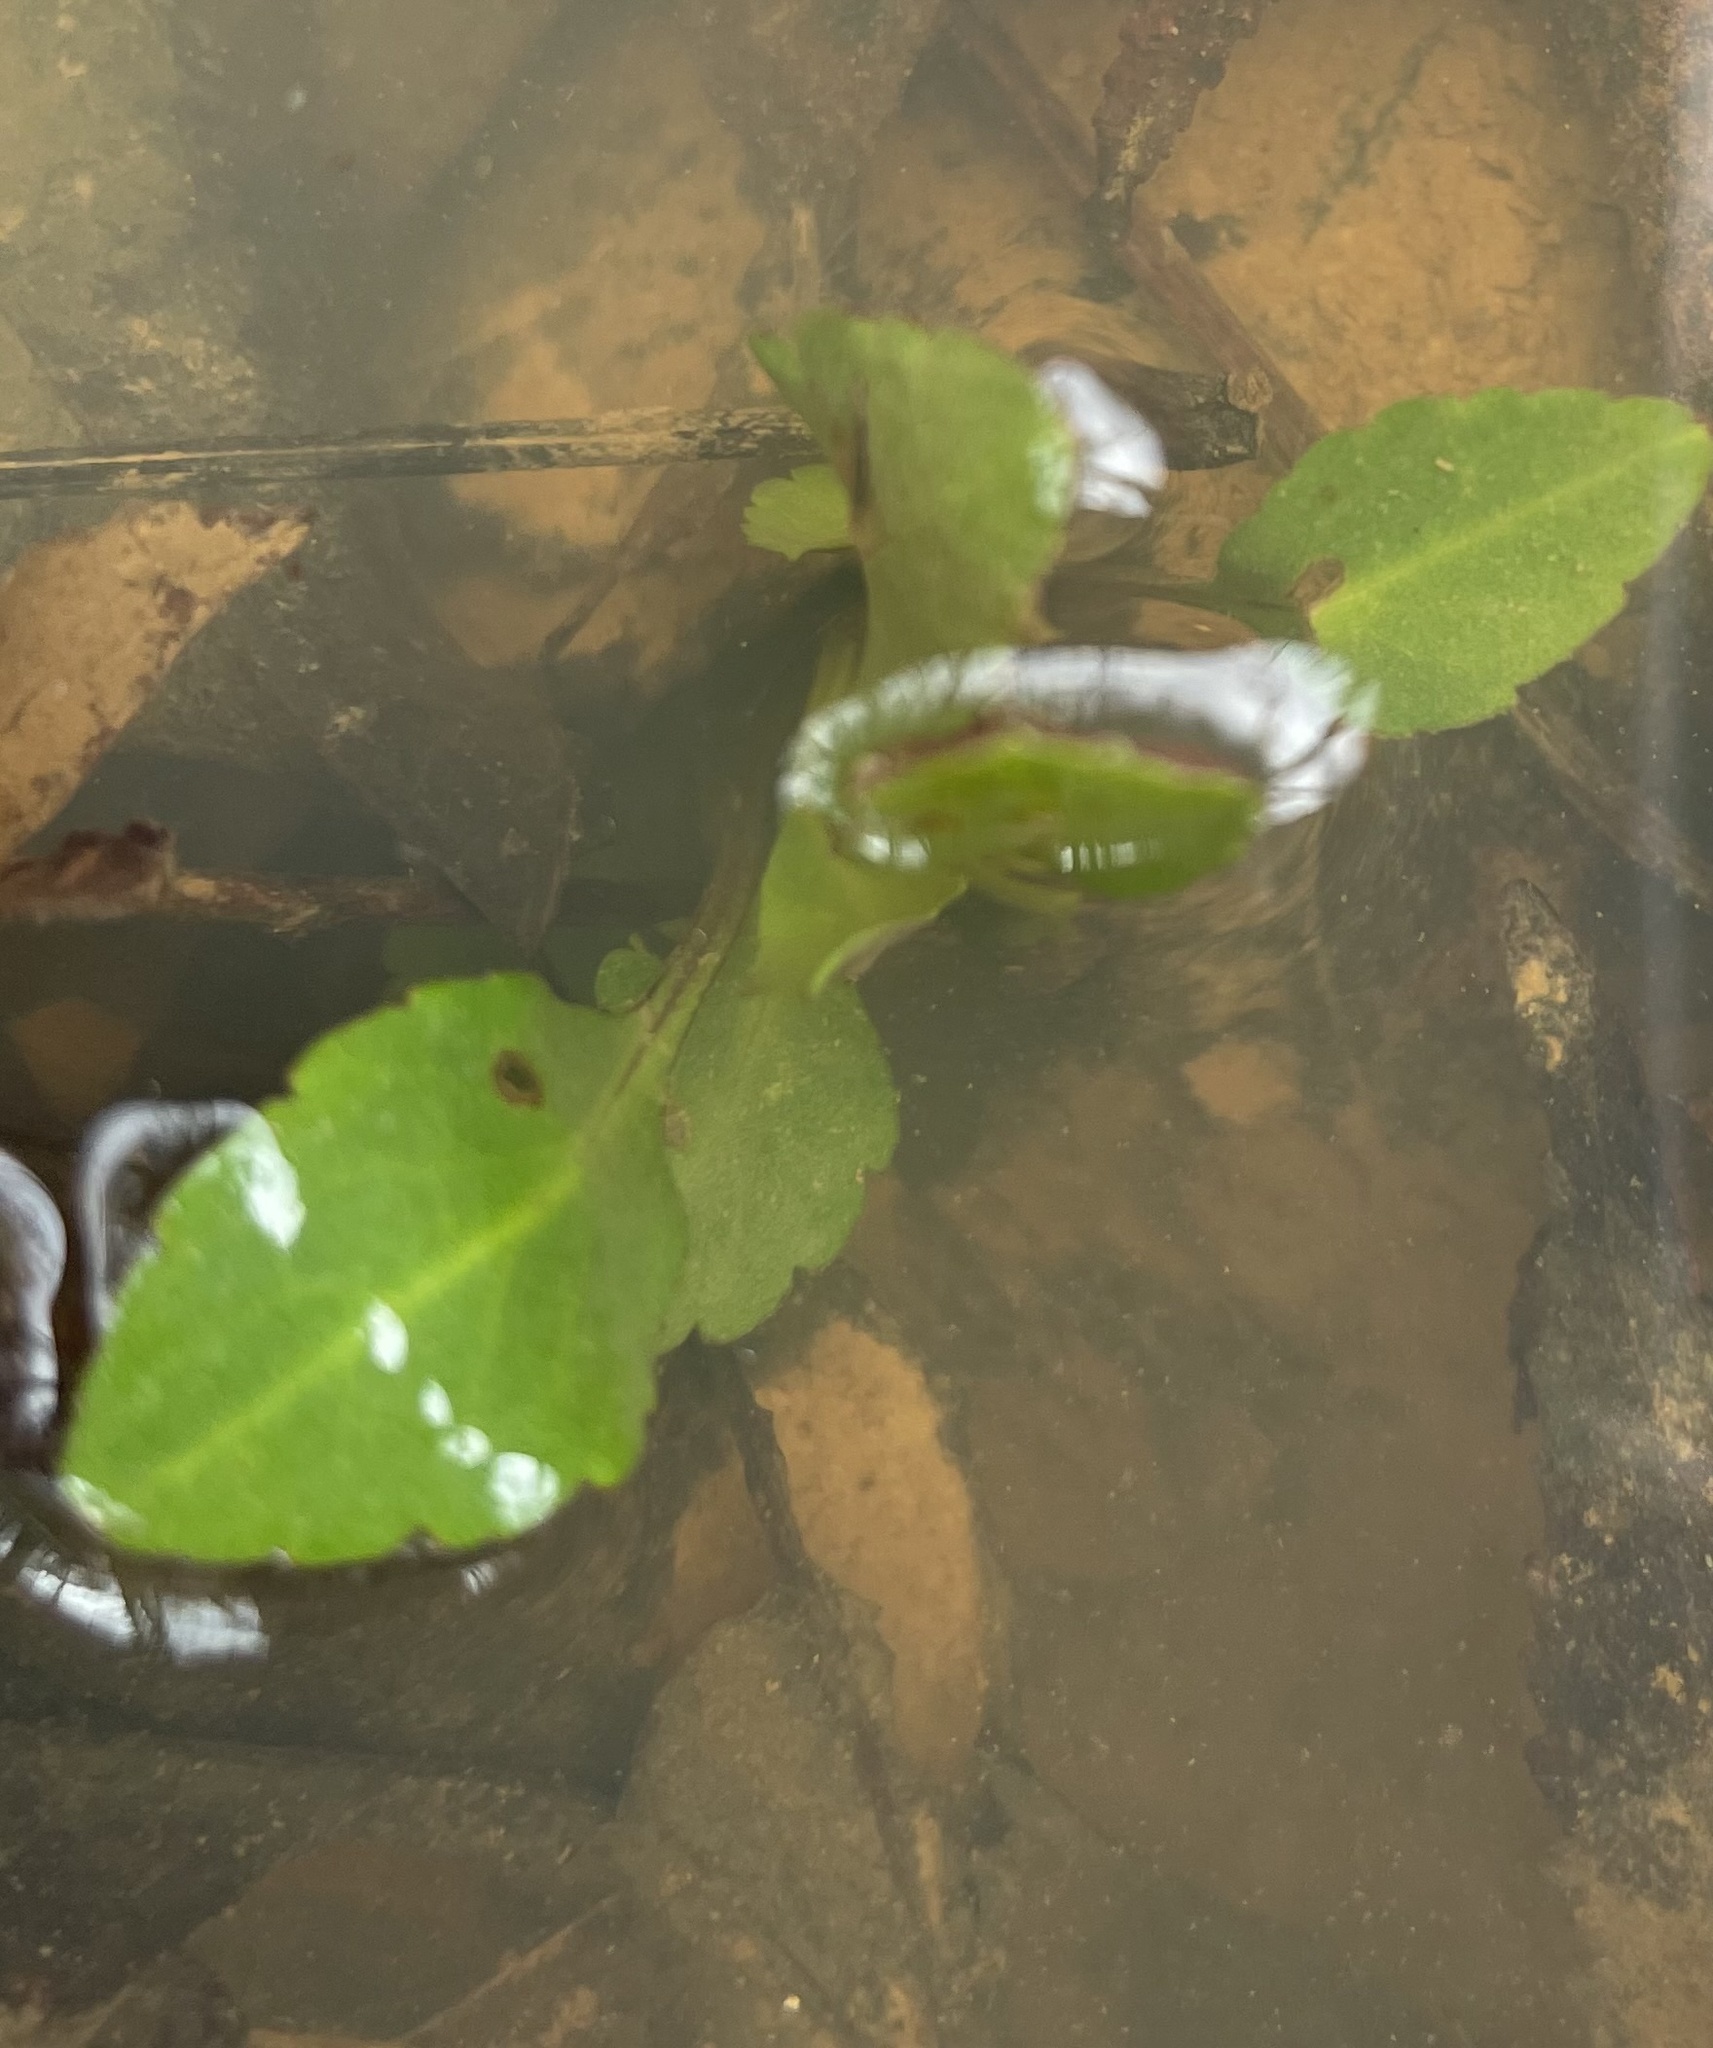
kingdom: Plantae
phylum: Tracheophyta
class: Magnoliopsida
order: Apiales
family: Apiaceae
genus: Eryngium
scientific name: Eryngium prostratum
